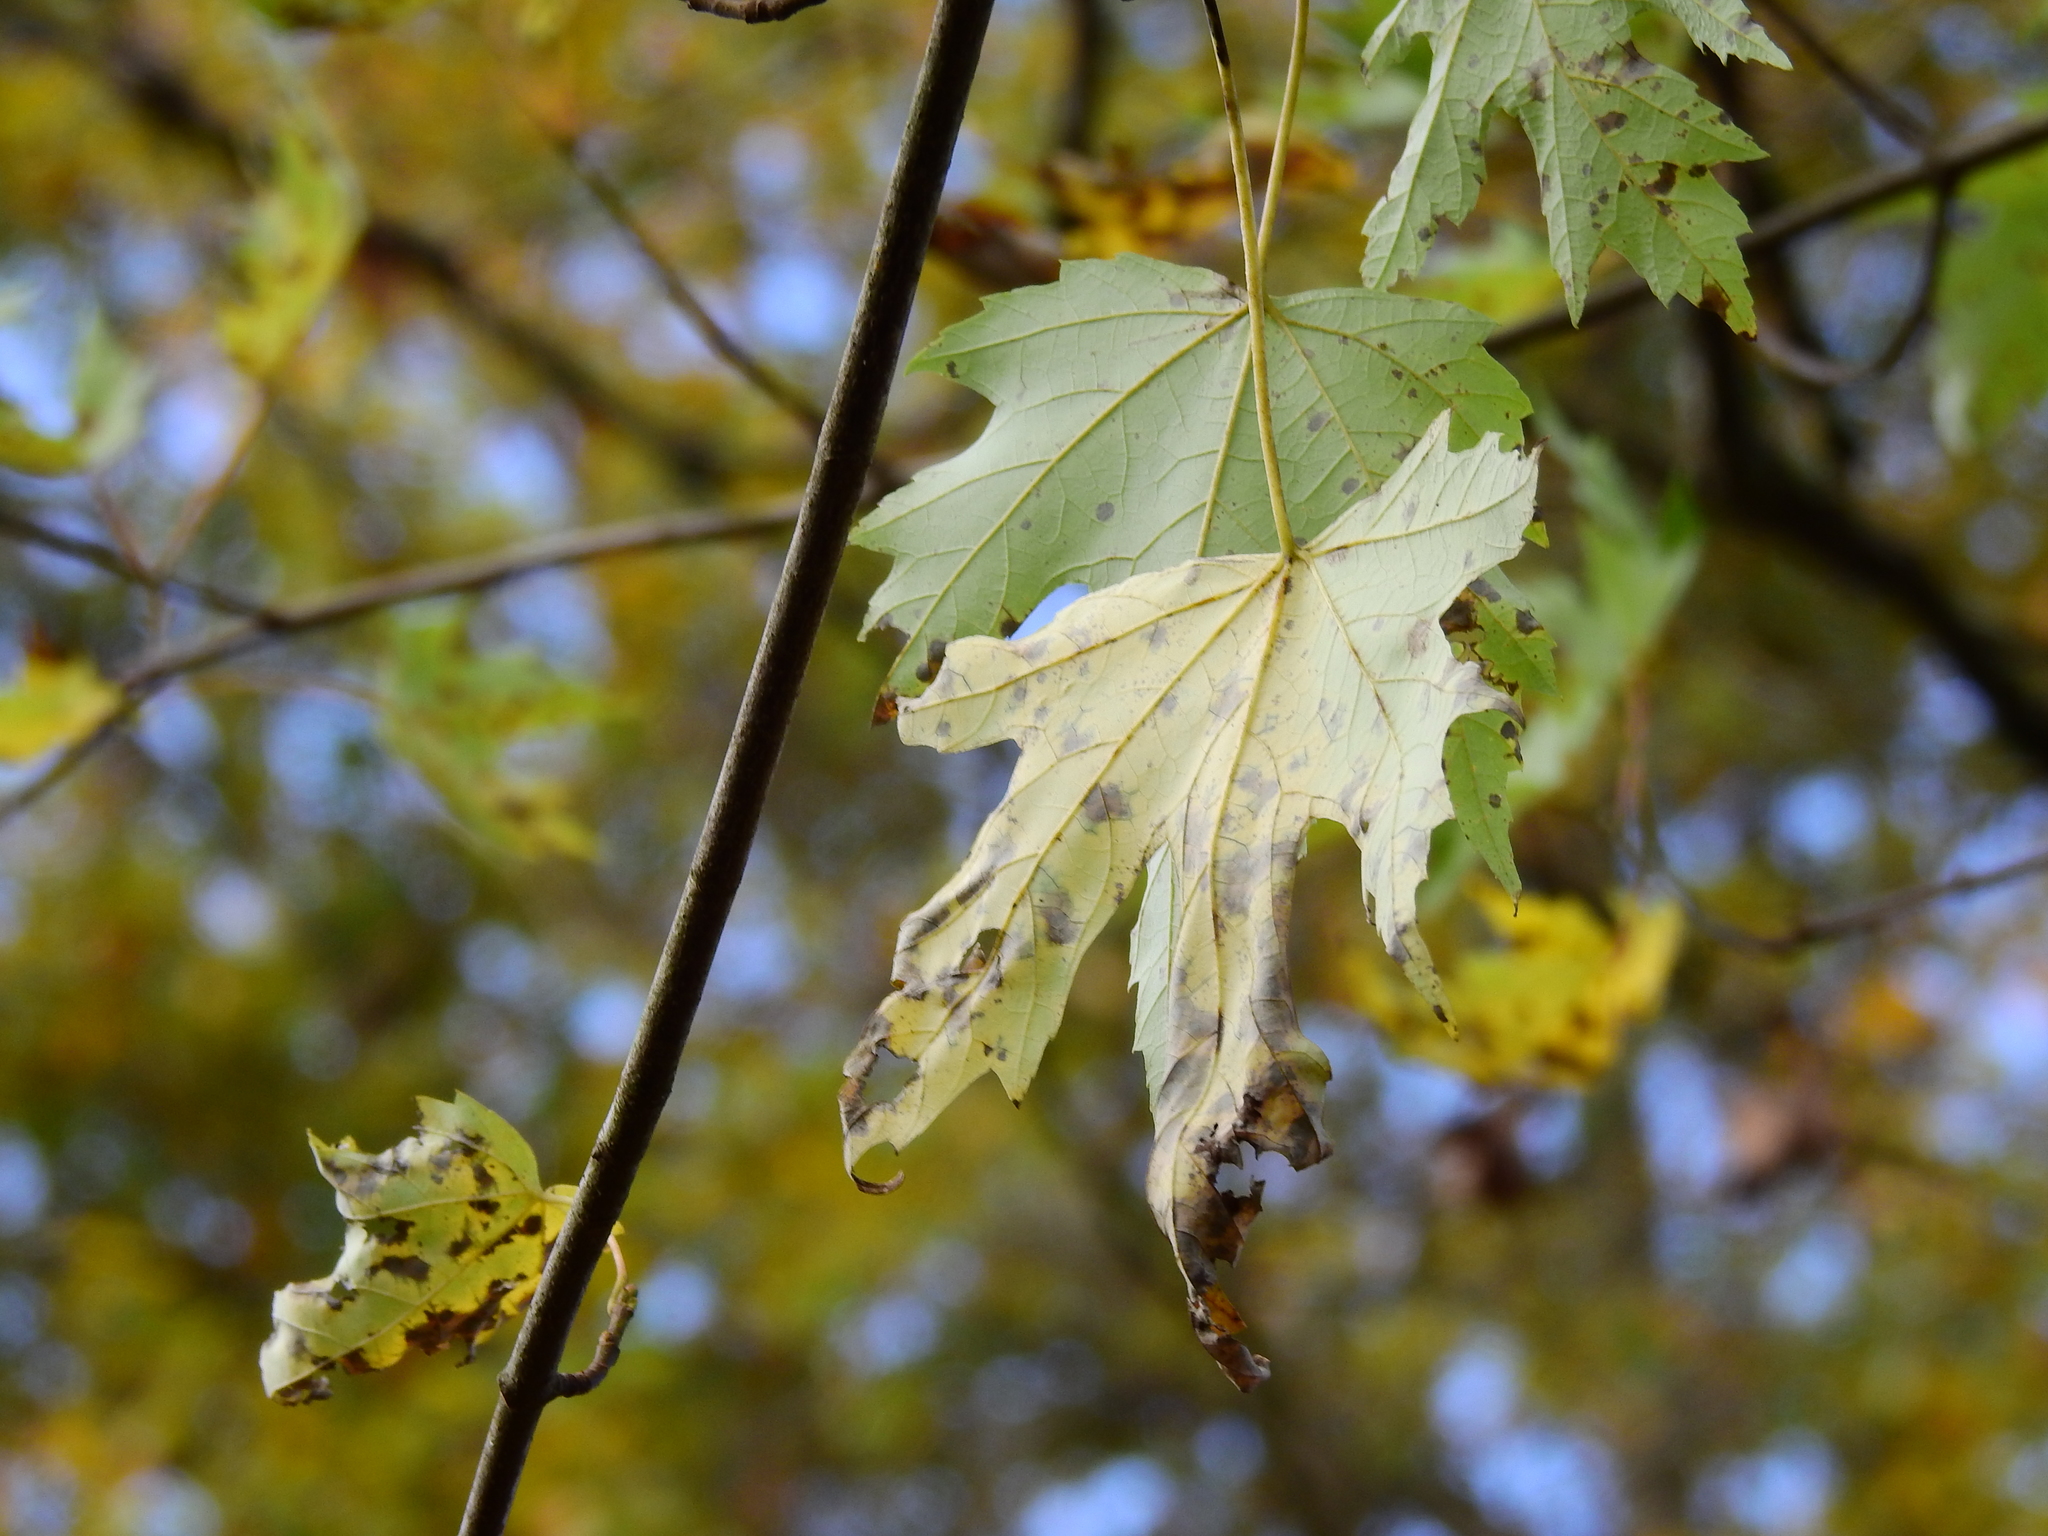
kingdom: Plantae
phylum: Tracheophyta
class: Magnoliopsida
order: Sapindales
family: Sapindaceae
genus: Acer
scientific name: Acer saccharinum
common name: Silver maple
